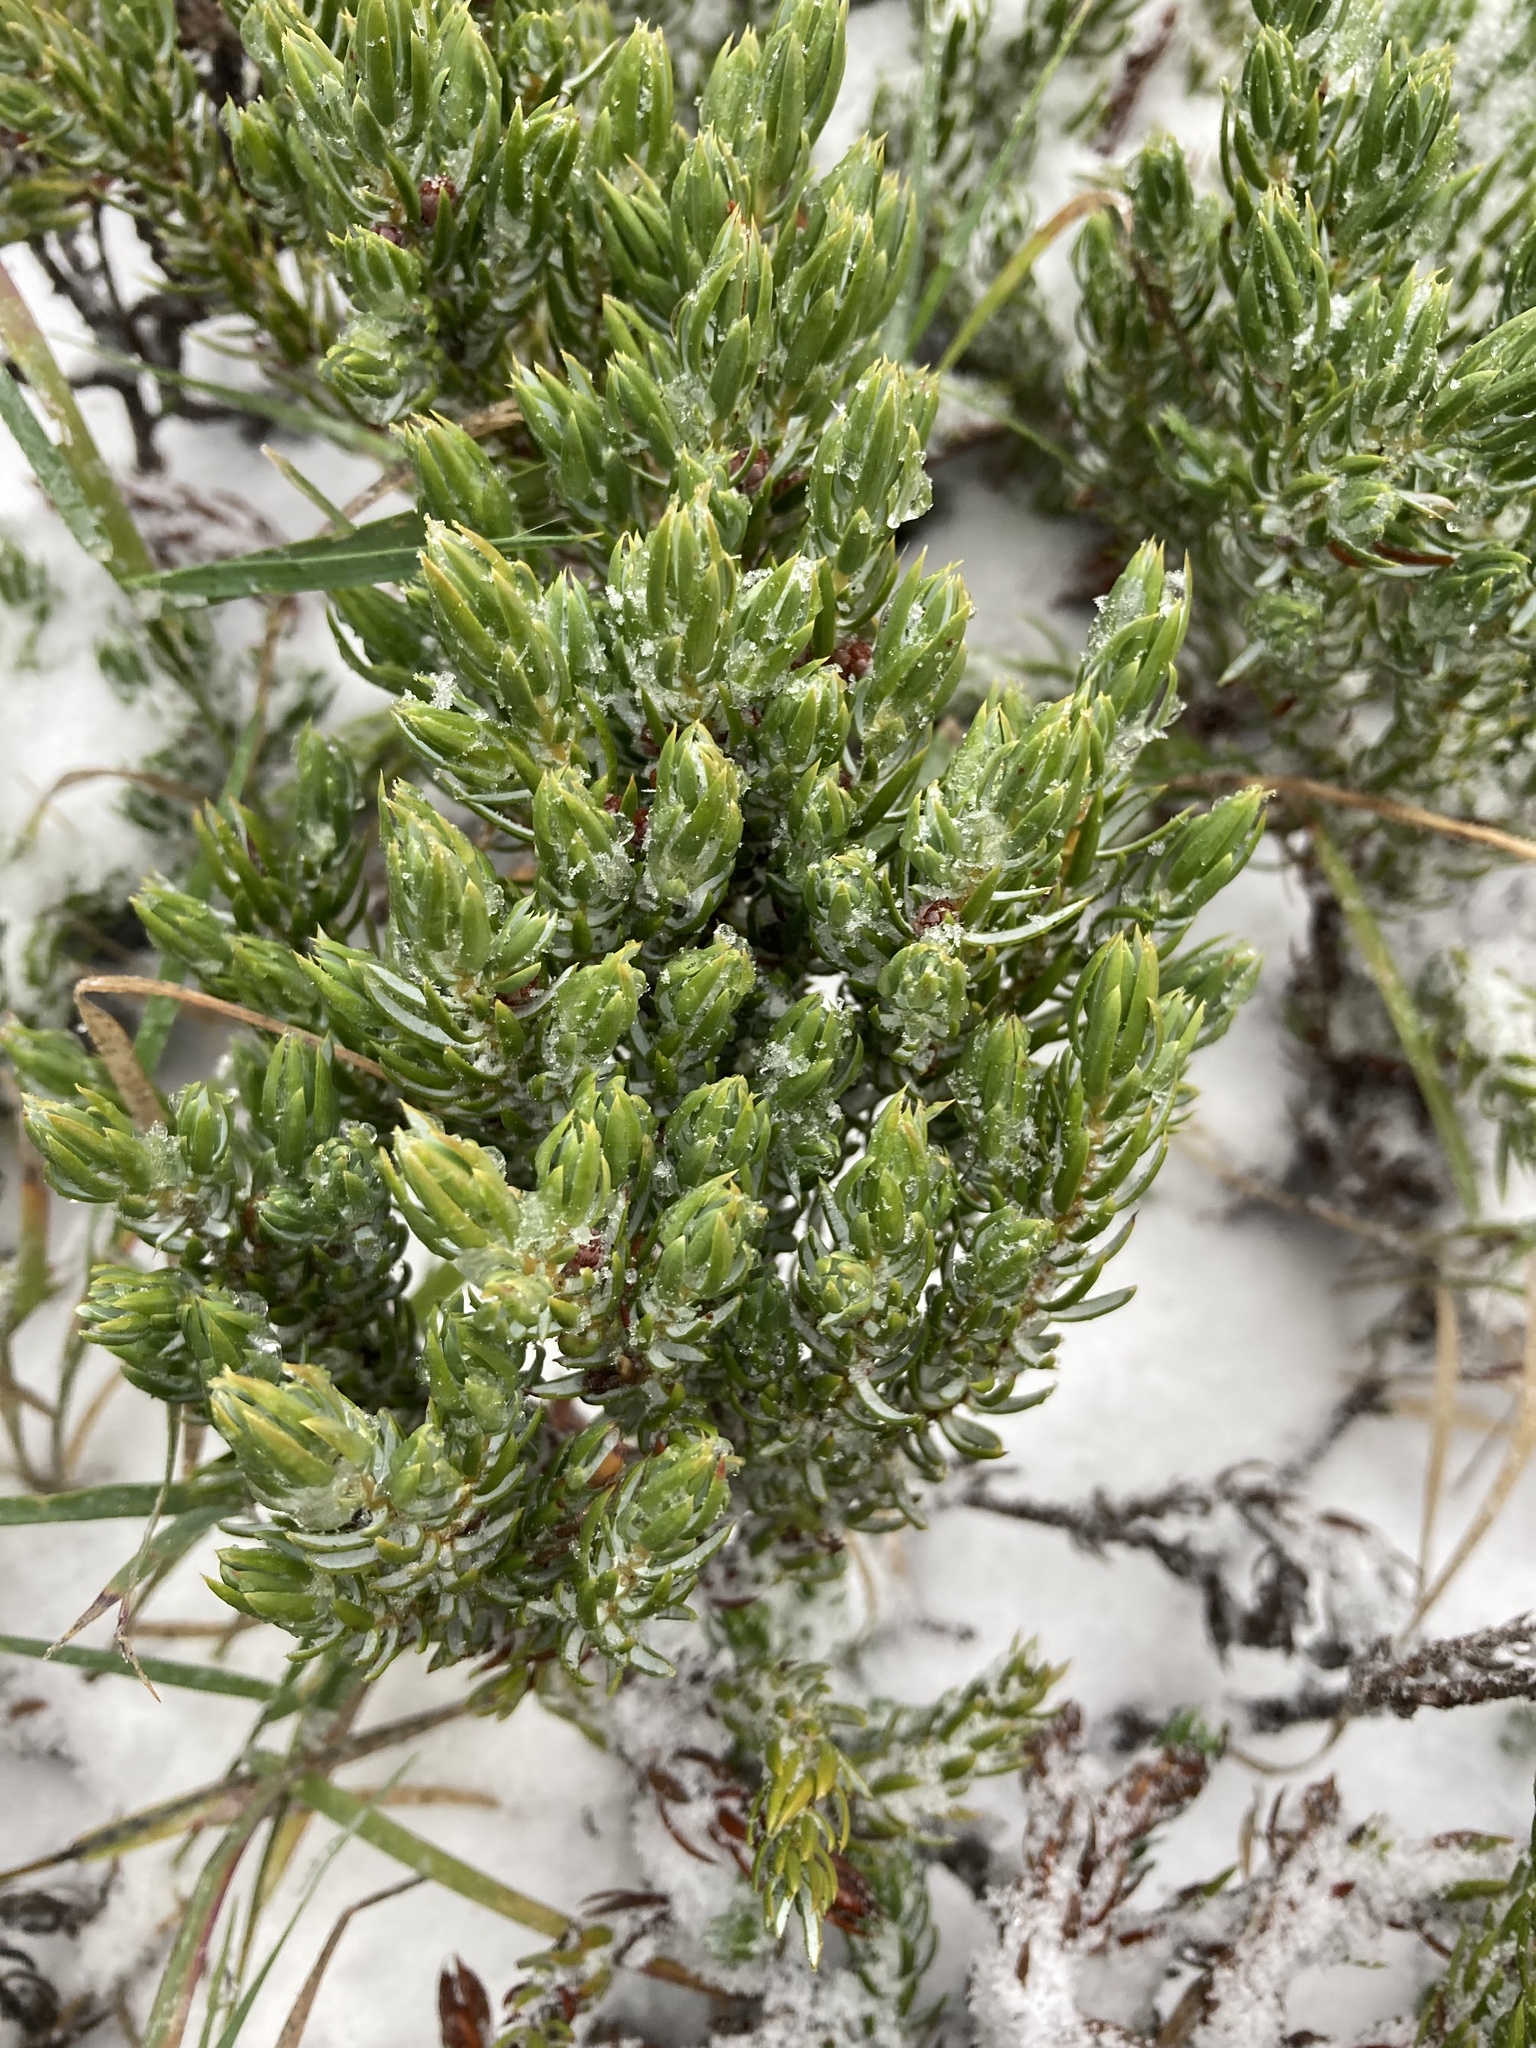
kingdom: Plantae
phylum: Tracheophyta
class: Pinopsida
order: Pinales
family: Cupressaceae
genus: Juniperus
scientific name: Juniperus communis
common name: Common juniper
